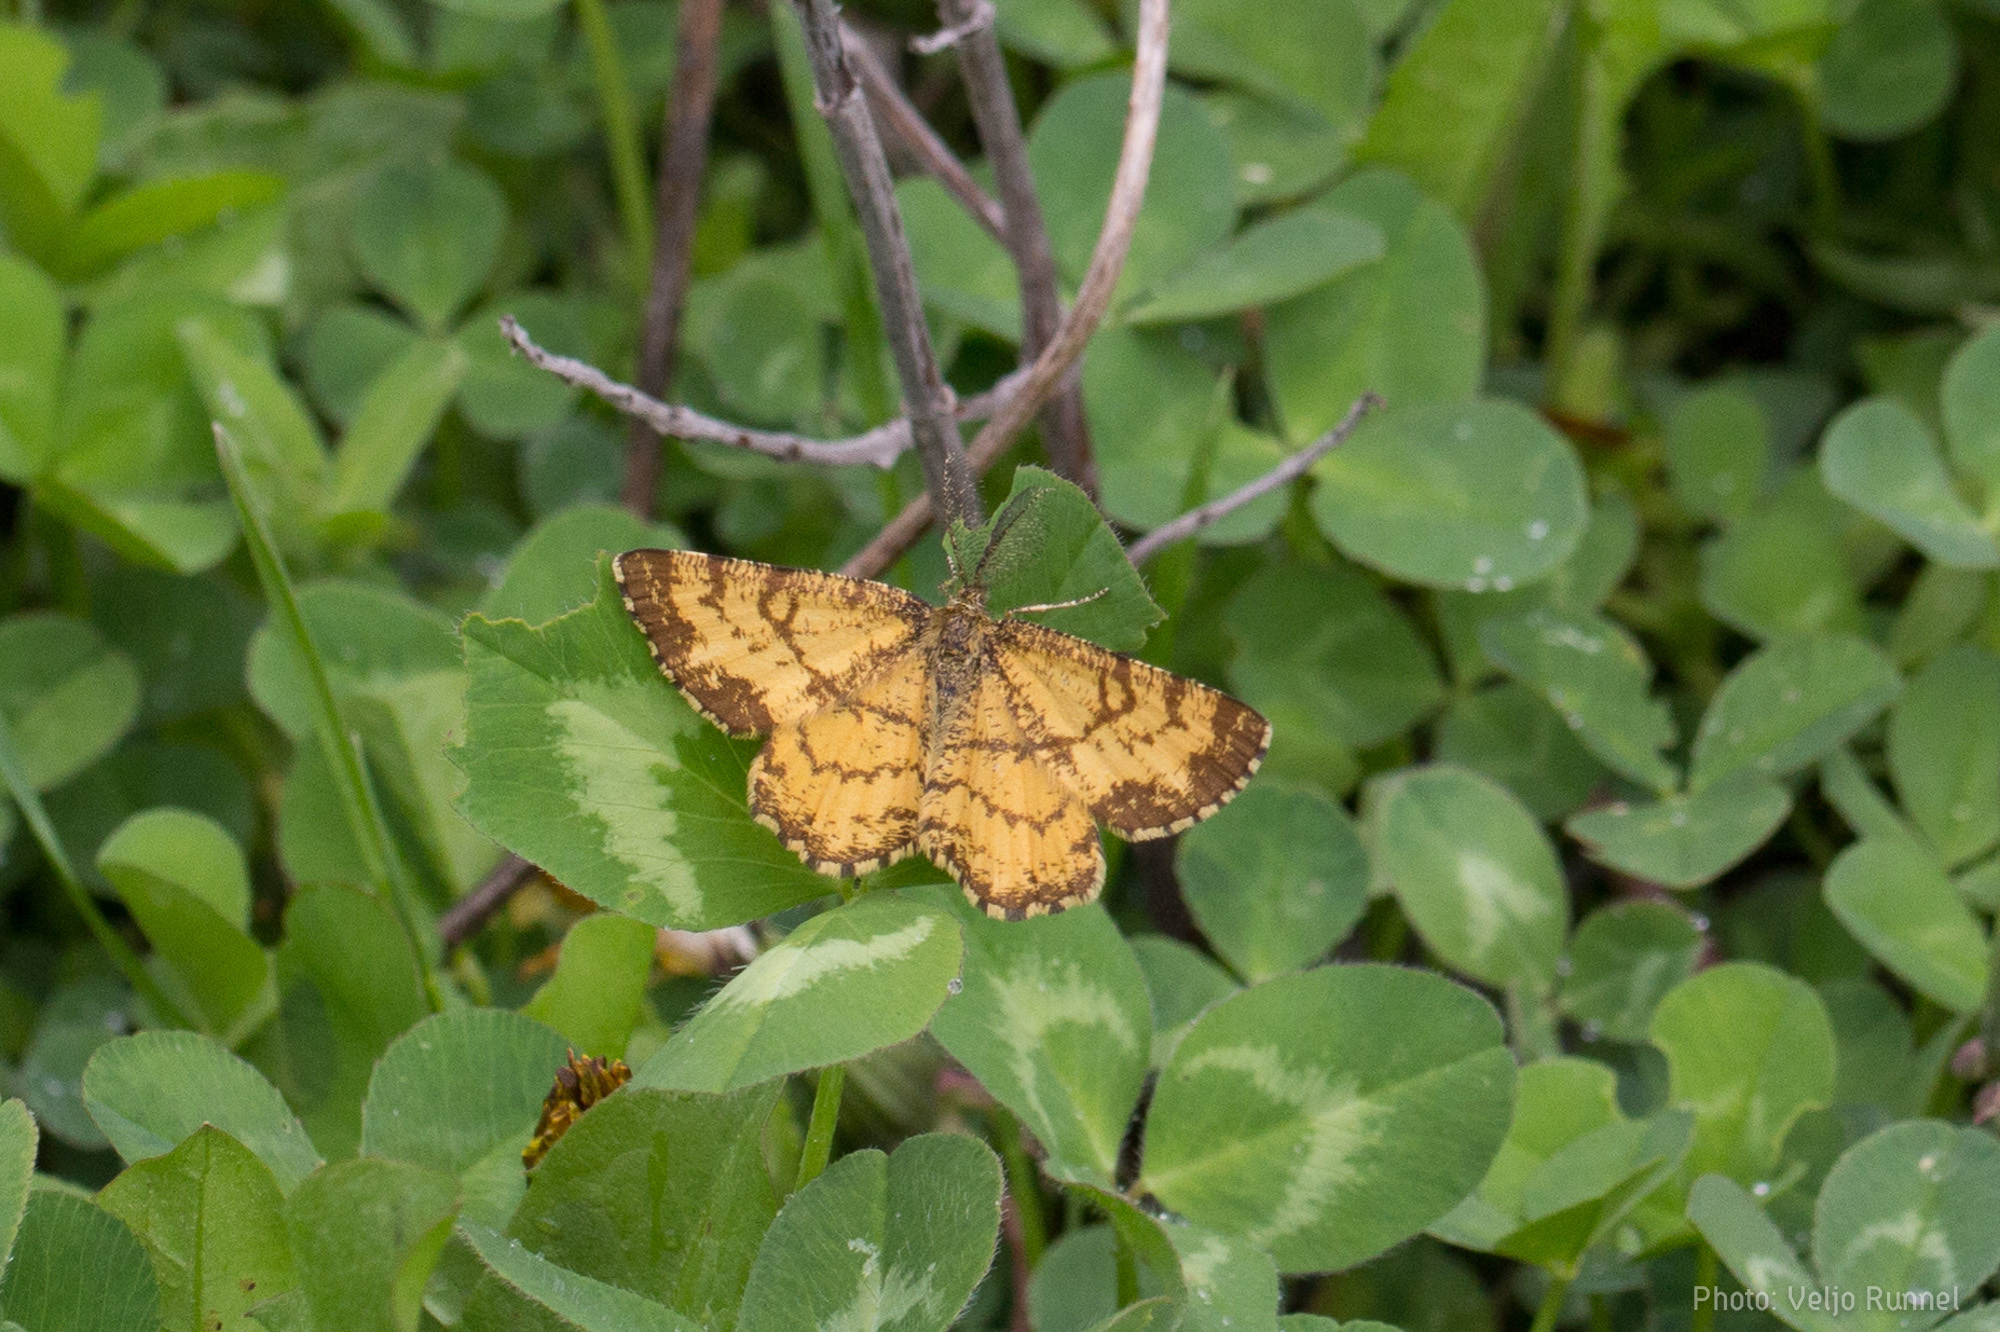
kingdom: Animalia
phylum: Arthropoda
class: Insecta
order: Lepidoptera
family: Geometridae
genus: Ematurga
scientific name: Ematurga atomaria
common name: Common heath
